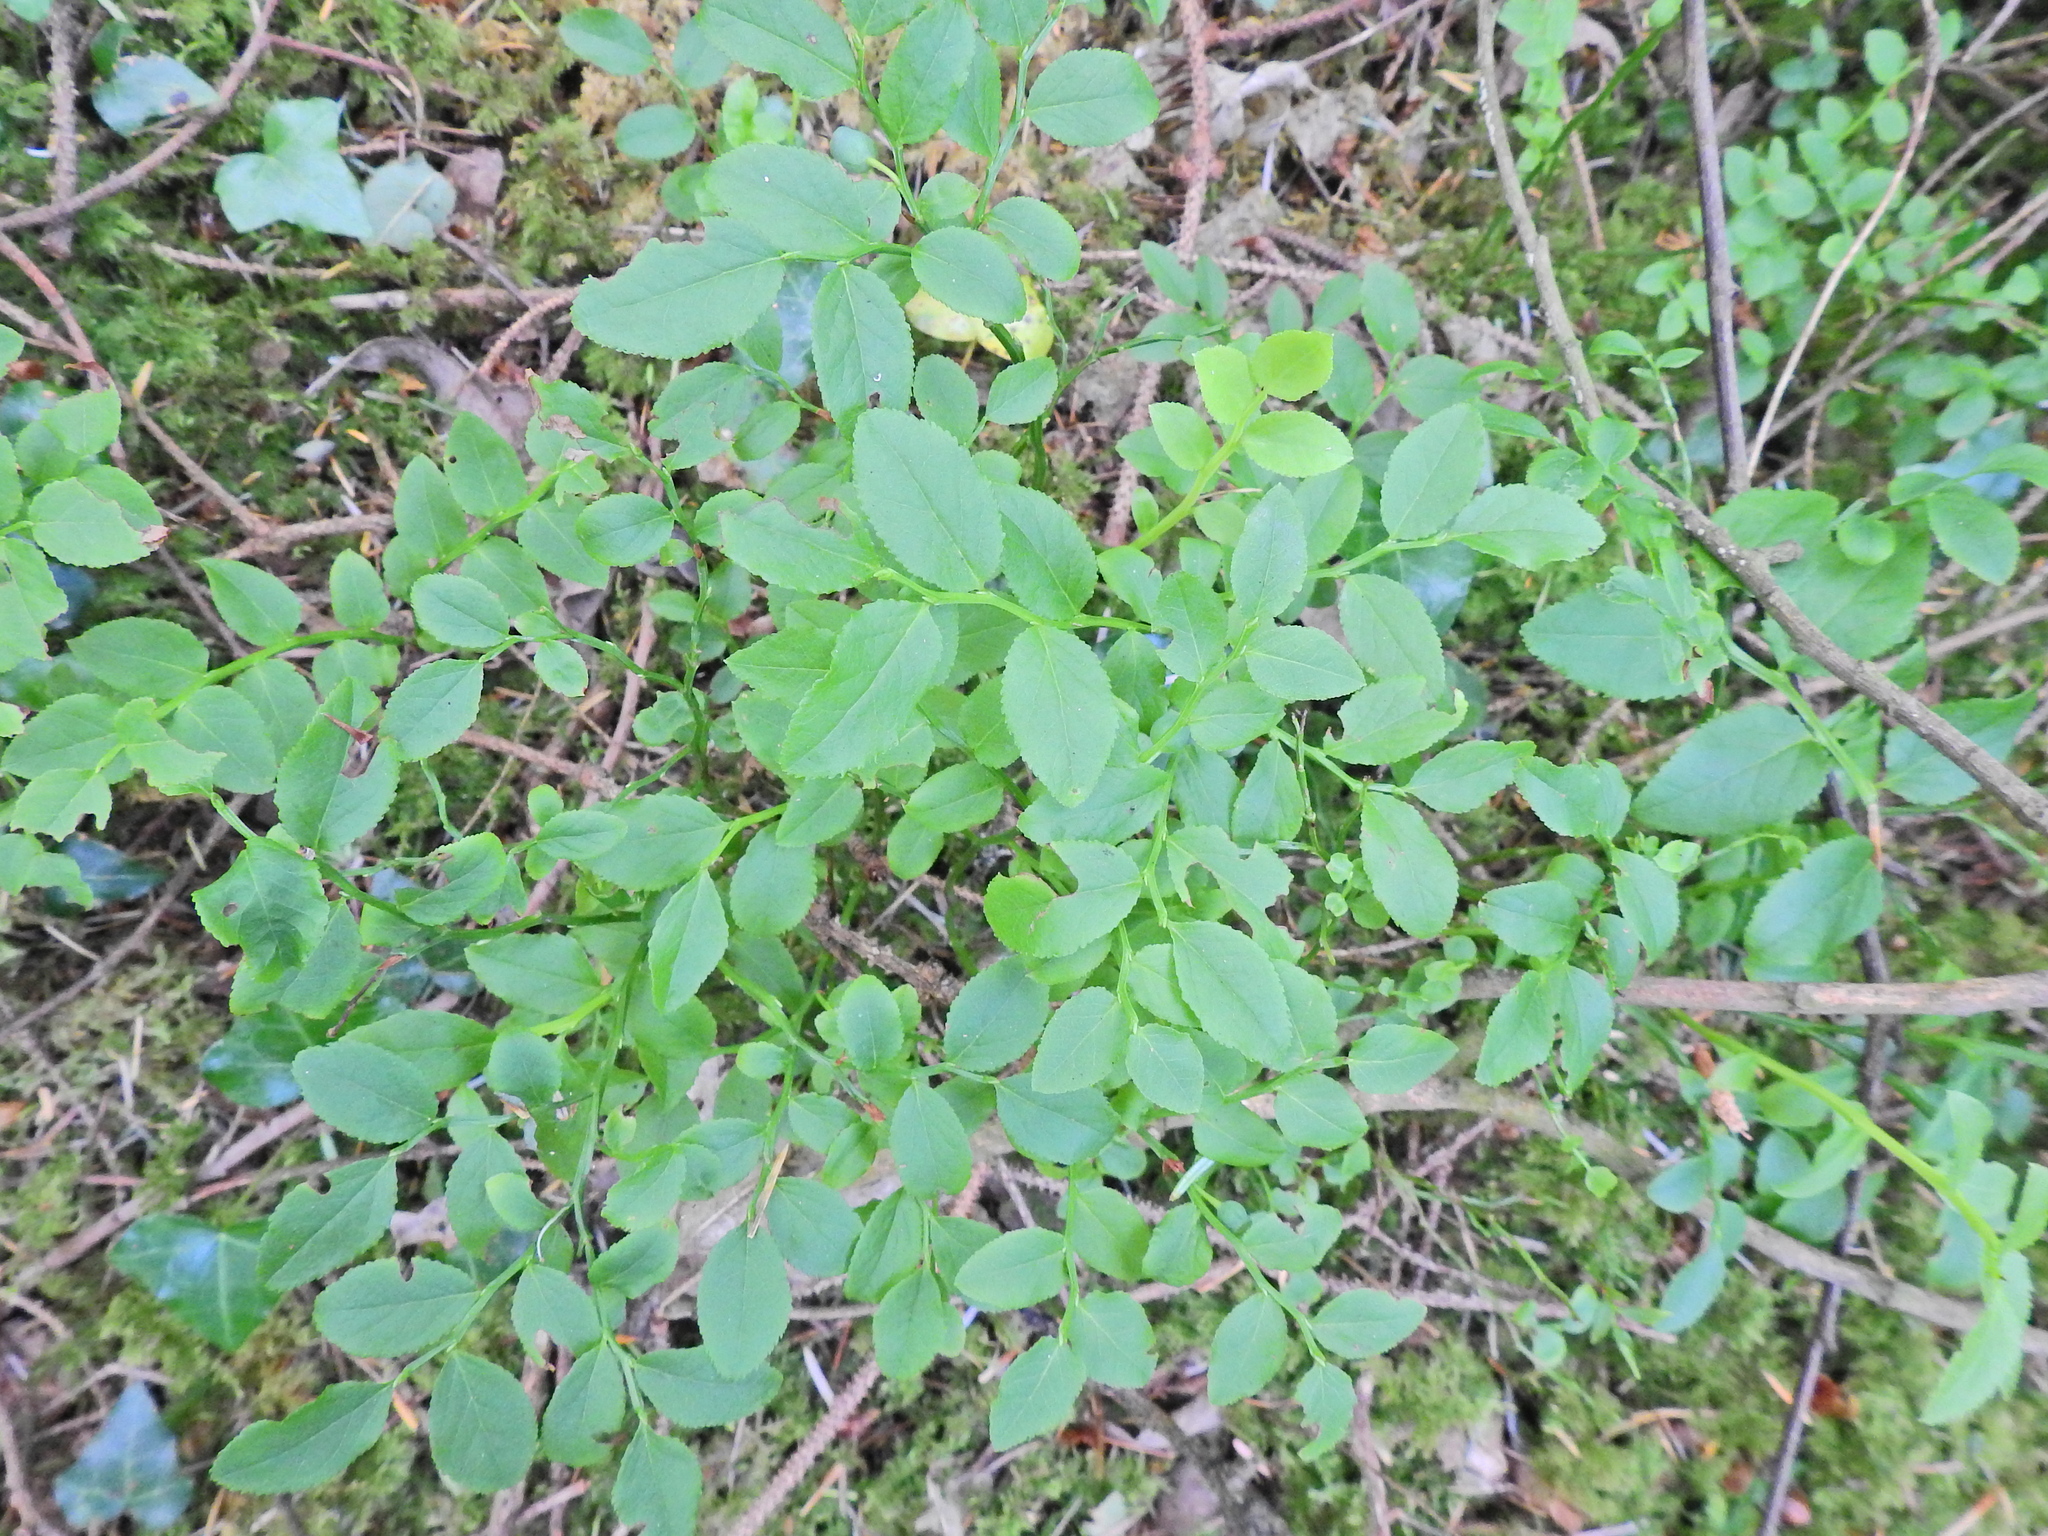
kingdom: Plantae
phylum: Tracheophyta
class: Magnoliopsida
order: Ericales
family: Ericaceae
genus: Vaccinium
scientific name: Vaccinium myrtillus
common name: Bilberry
